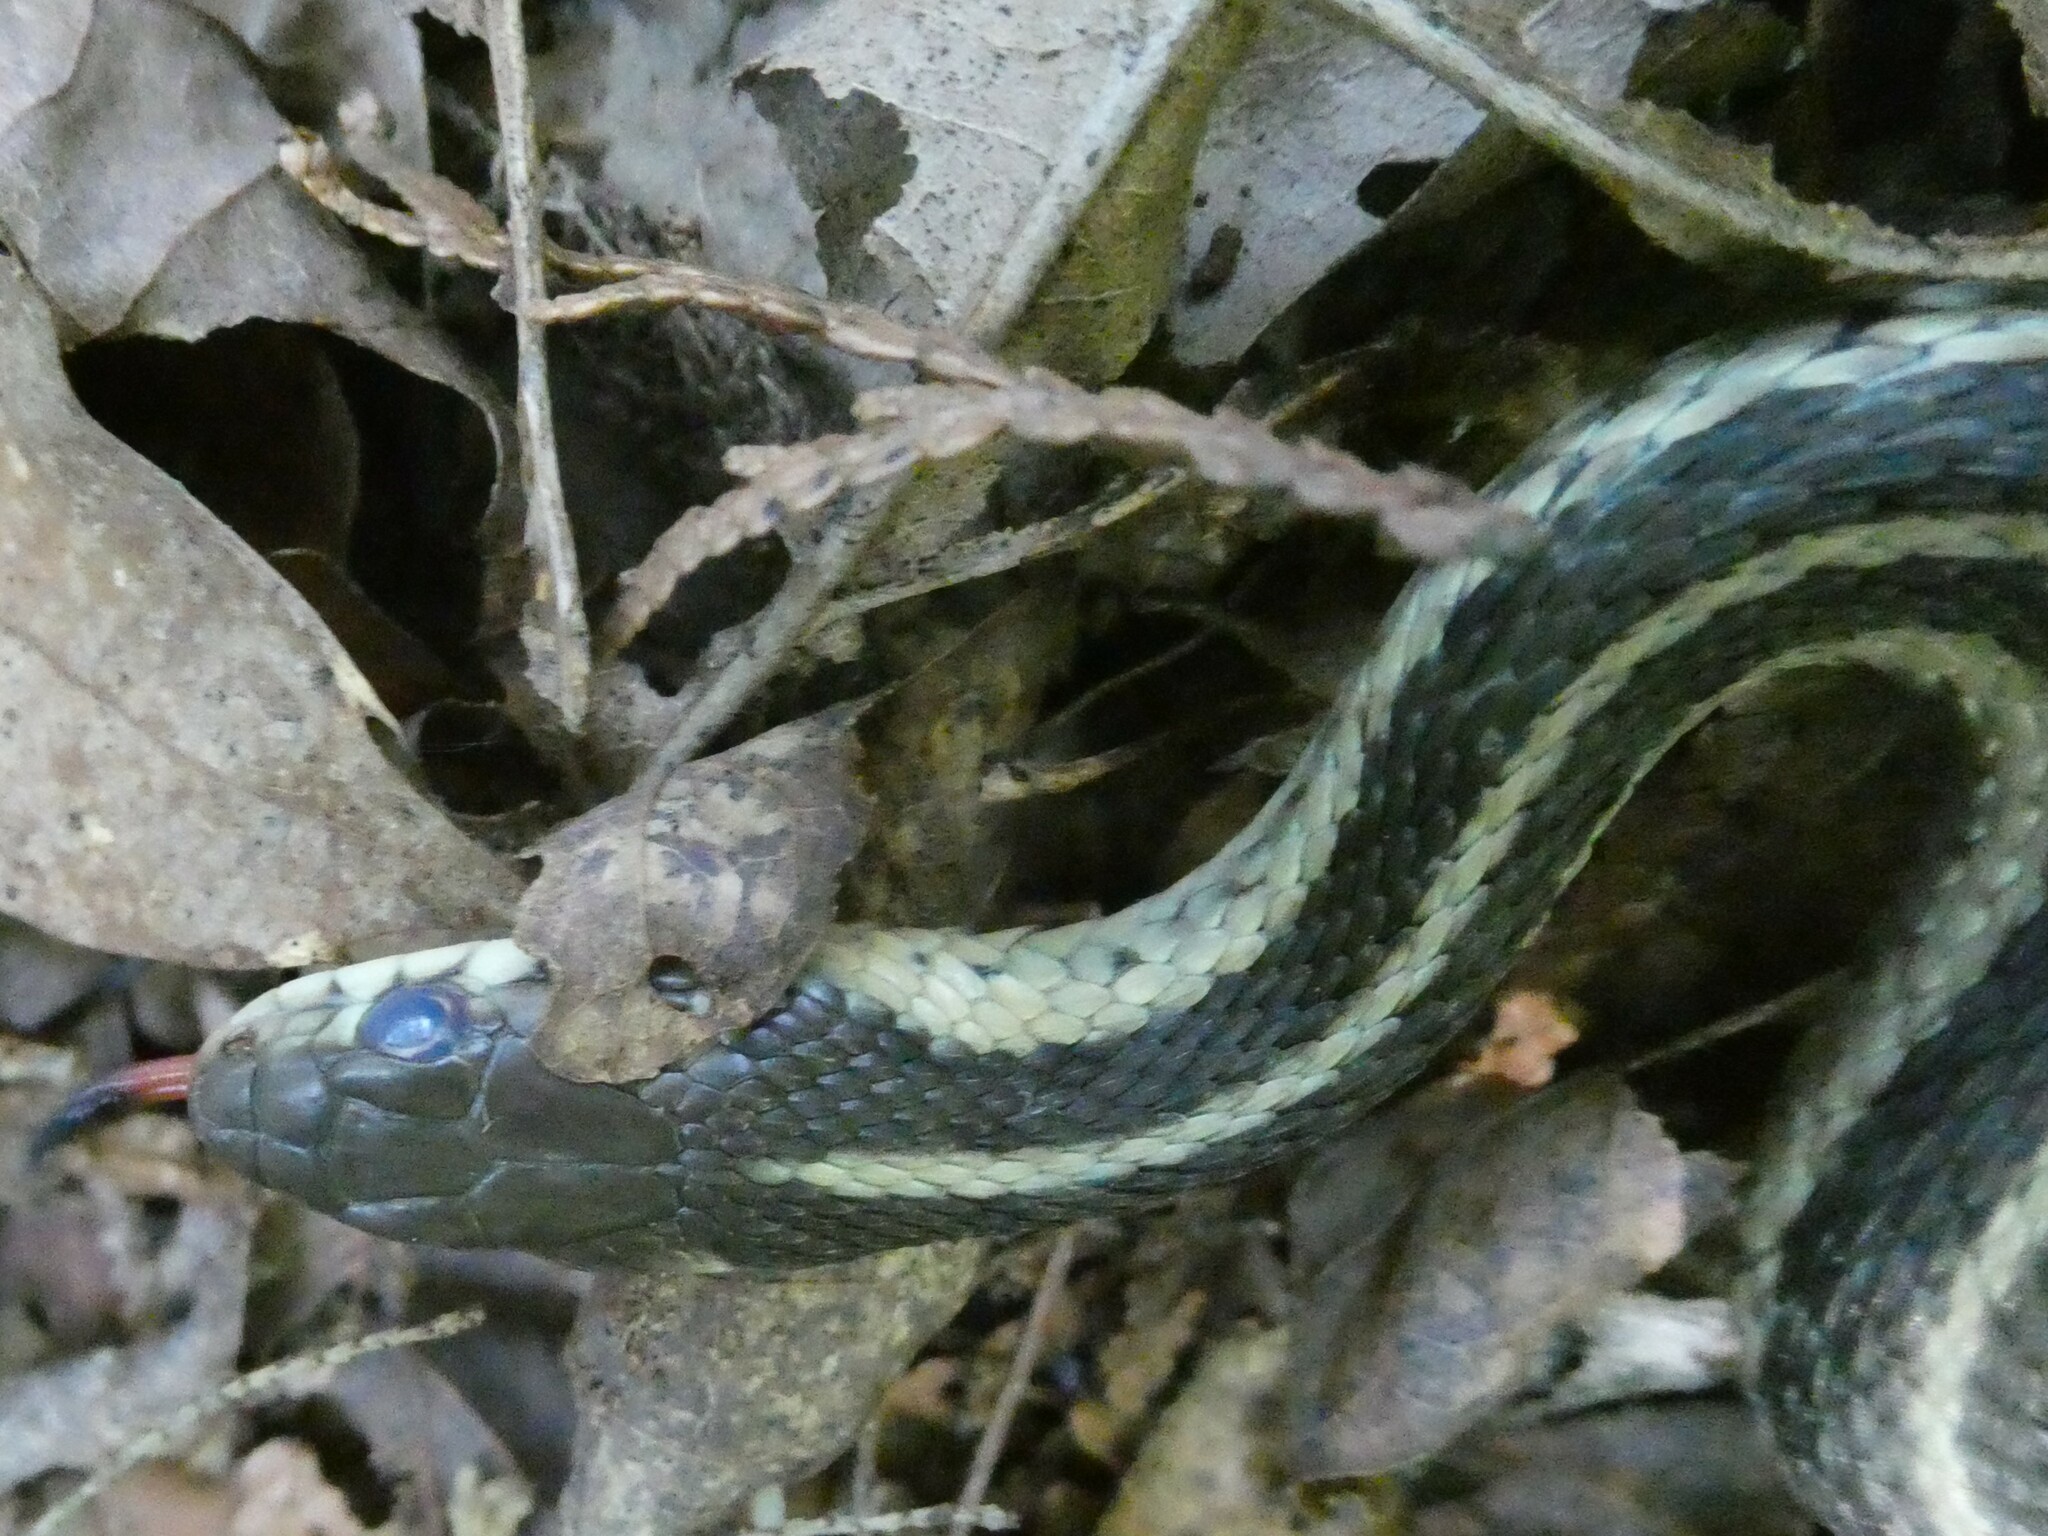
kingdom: Animalia
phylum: Chordata
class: Squamata
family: Colubridae
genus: Thamnophis
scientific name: Thamnophis sirtalis
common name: Common garter snake
